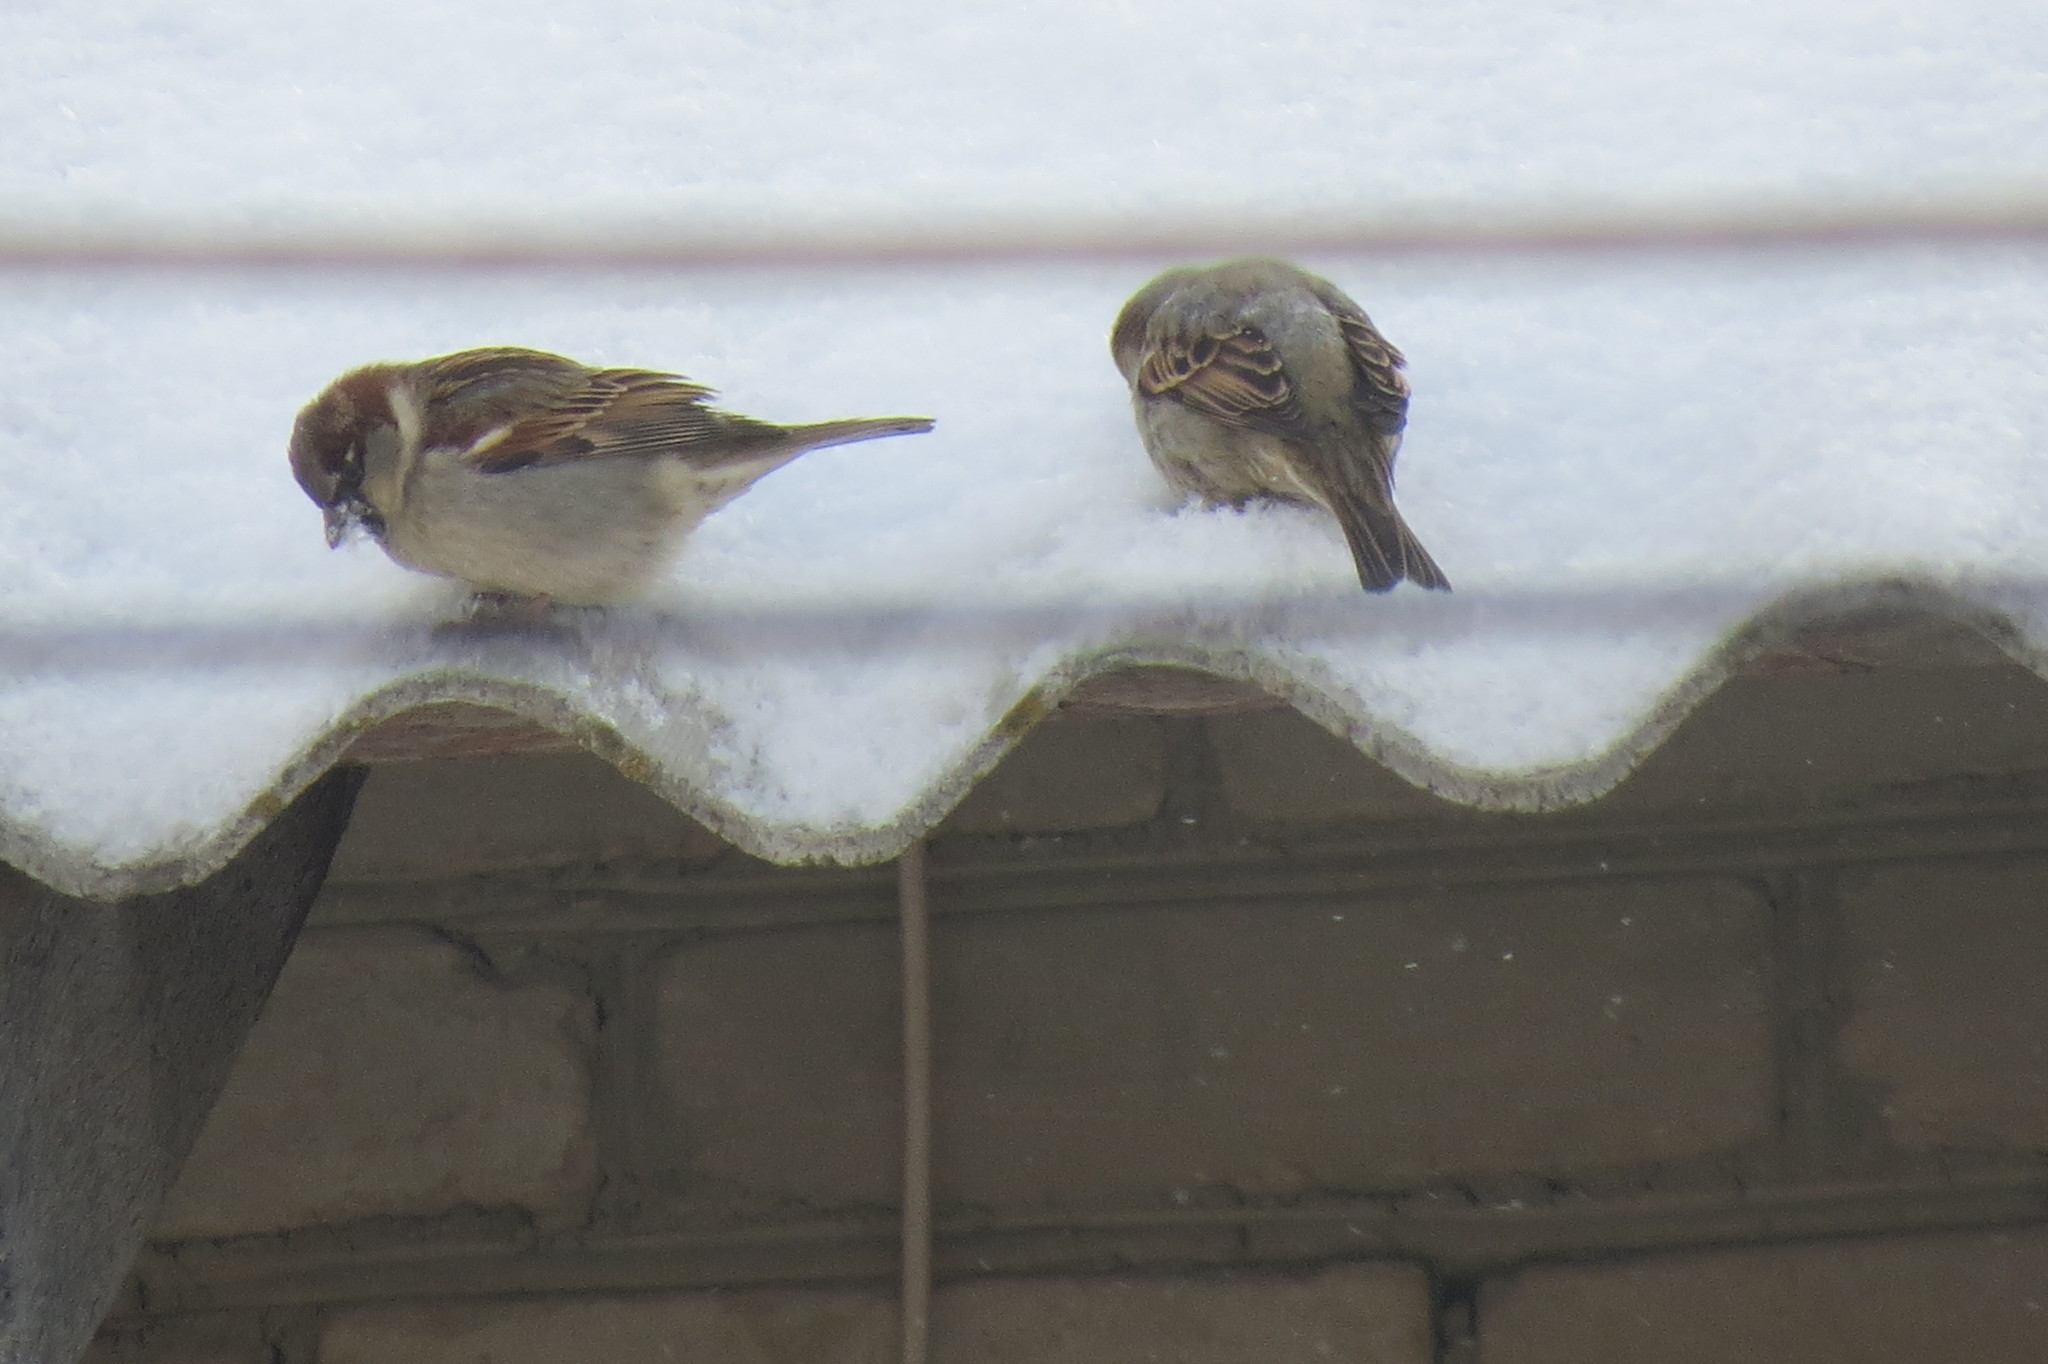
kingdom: Animalia
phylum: Chordata
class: Aves
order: Passeriformes
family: Passeridae
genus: Passer
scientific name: Passer domesticus
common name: House sparrow
